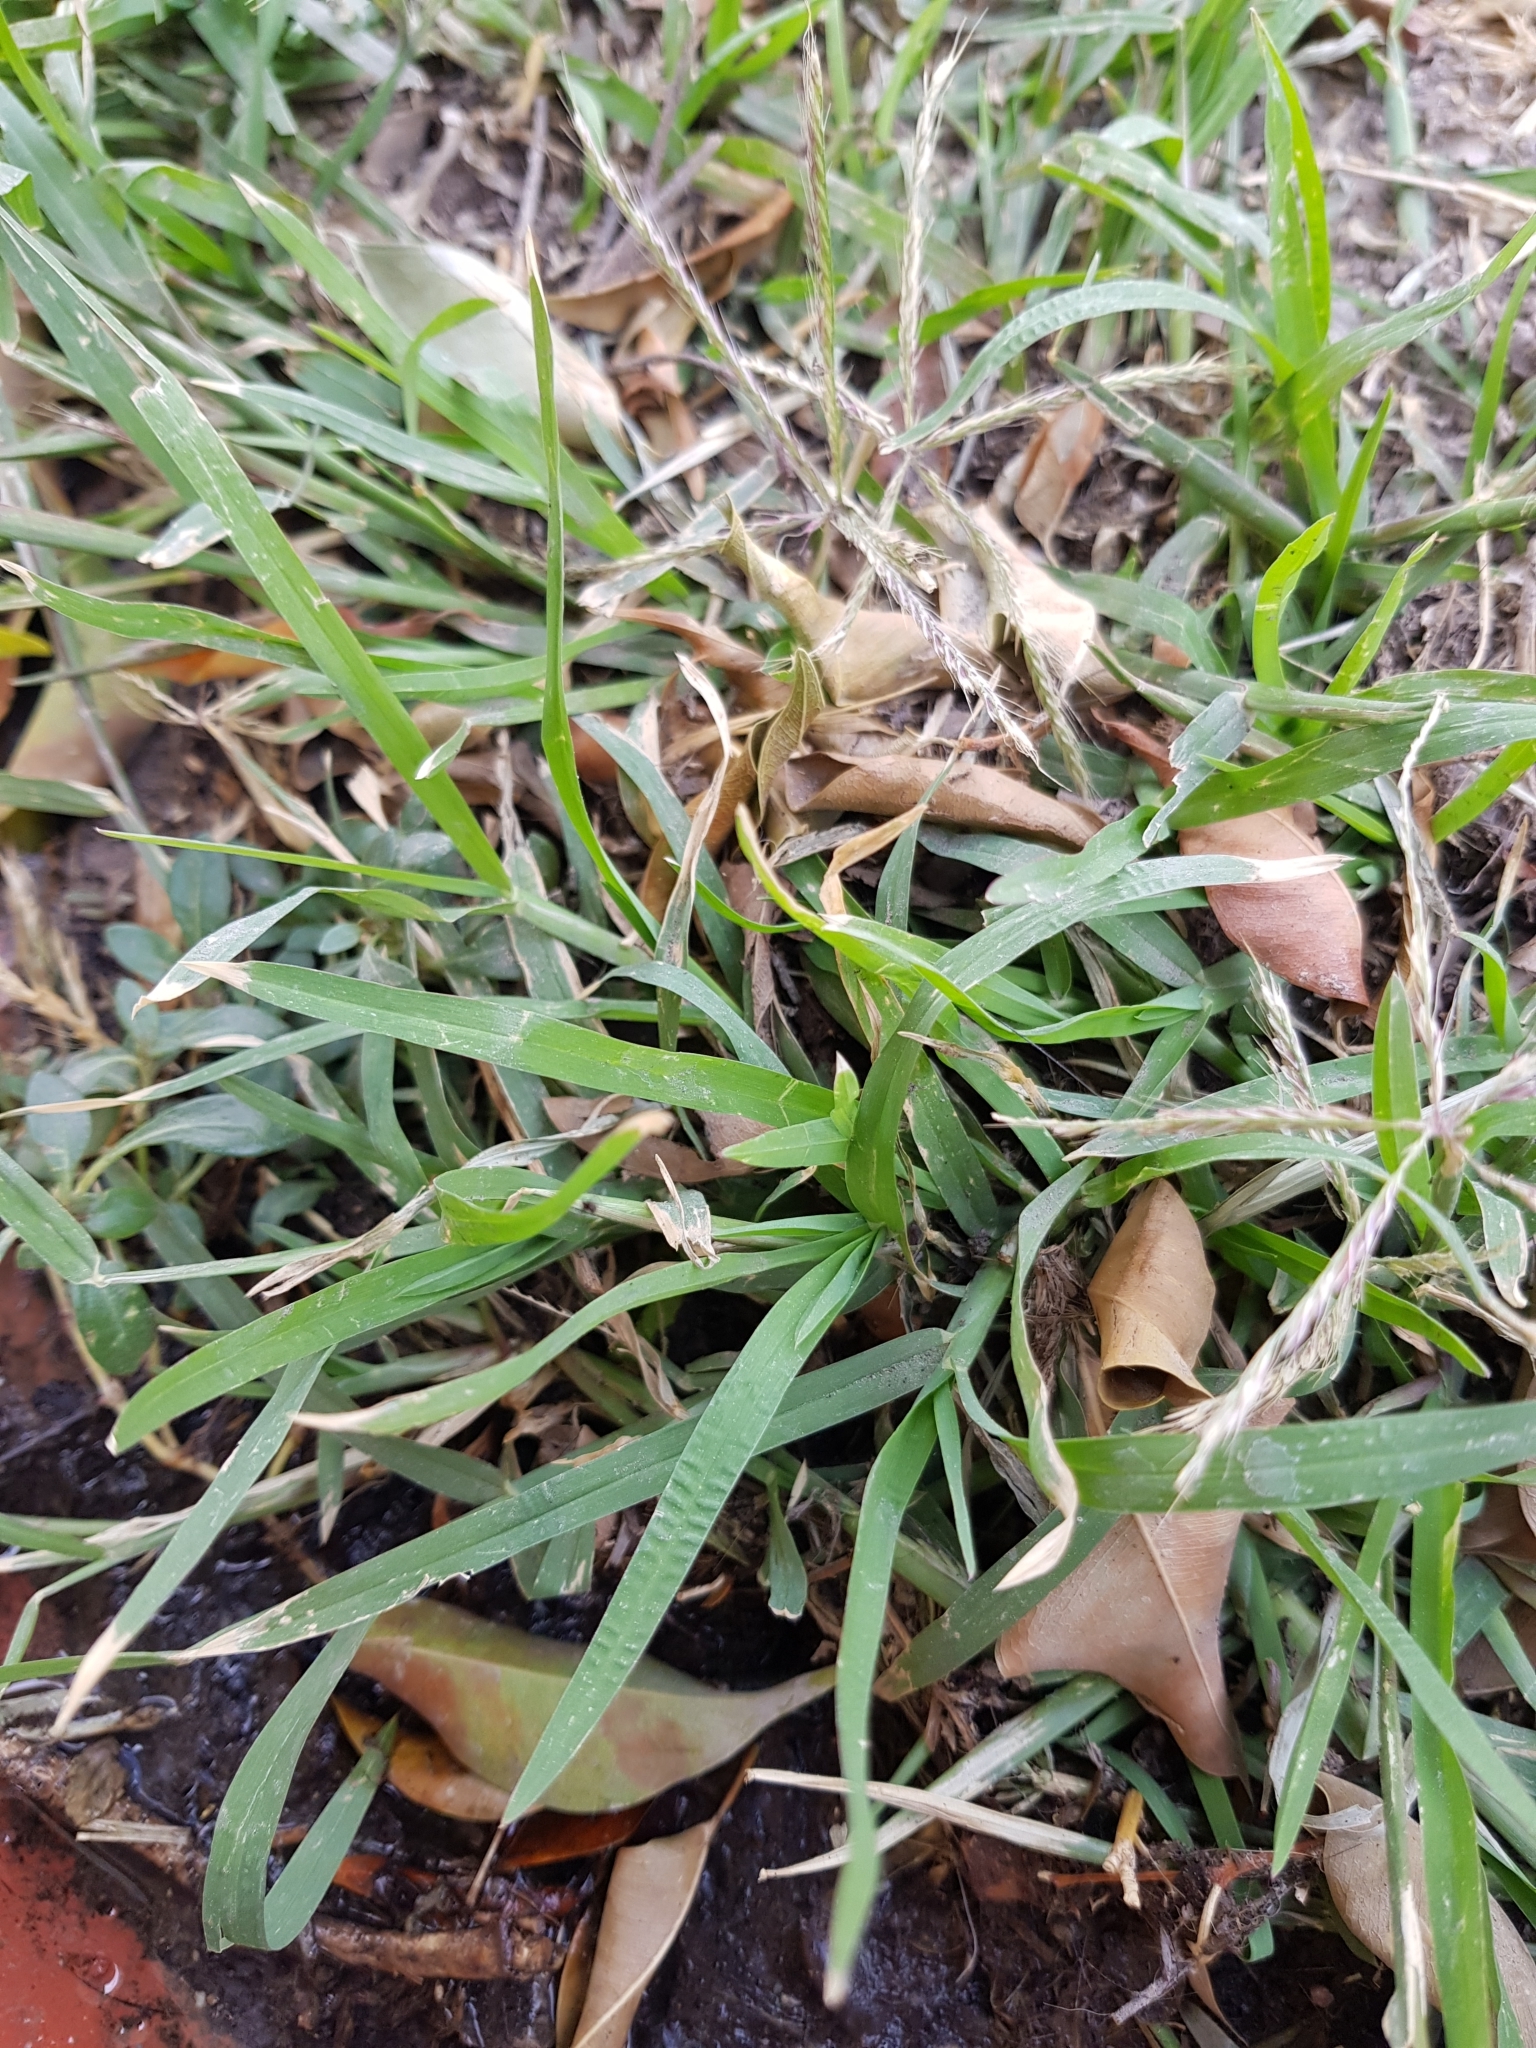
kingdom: Plantae
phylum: Tracheophyta
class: Liliopsida
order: Poales
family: Poaceae
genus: Chloris
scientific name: Chloris barbata
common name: Swollen fingergrass
